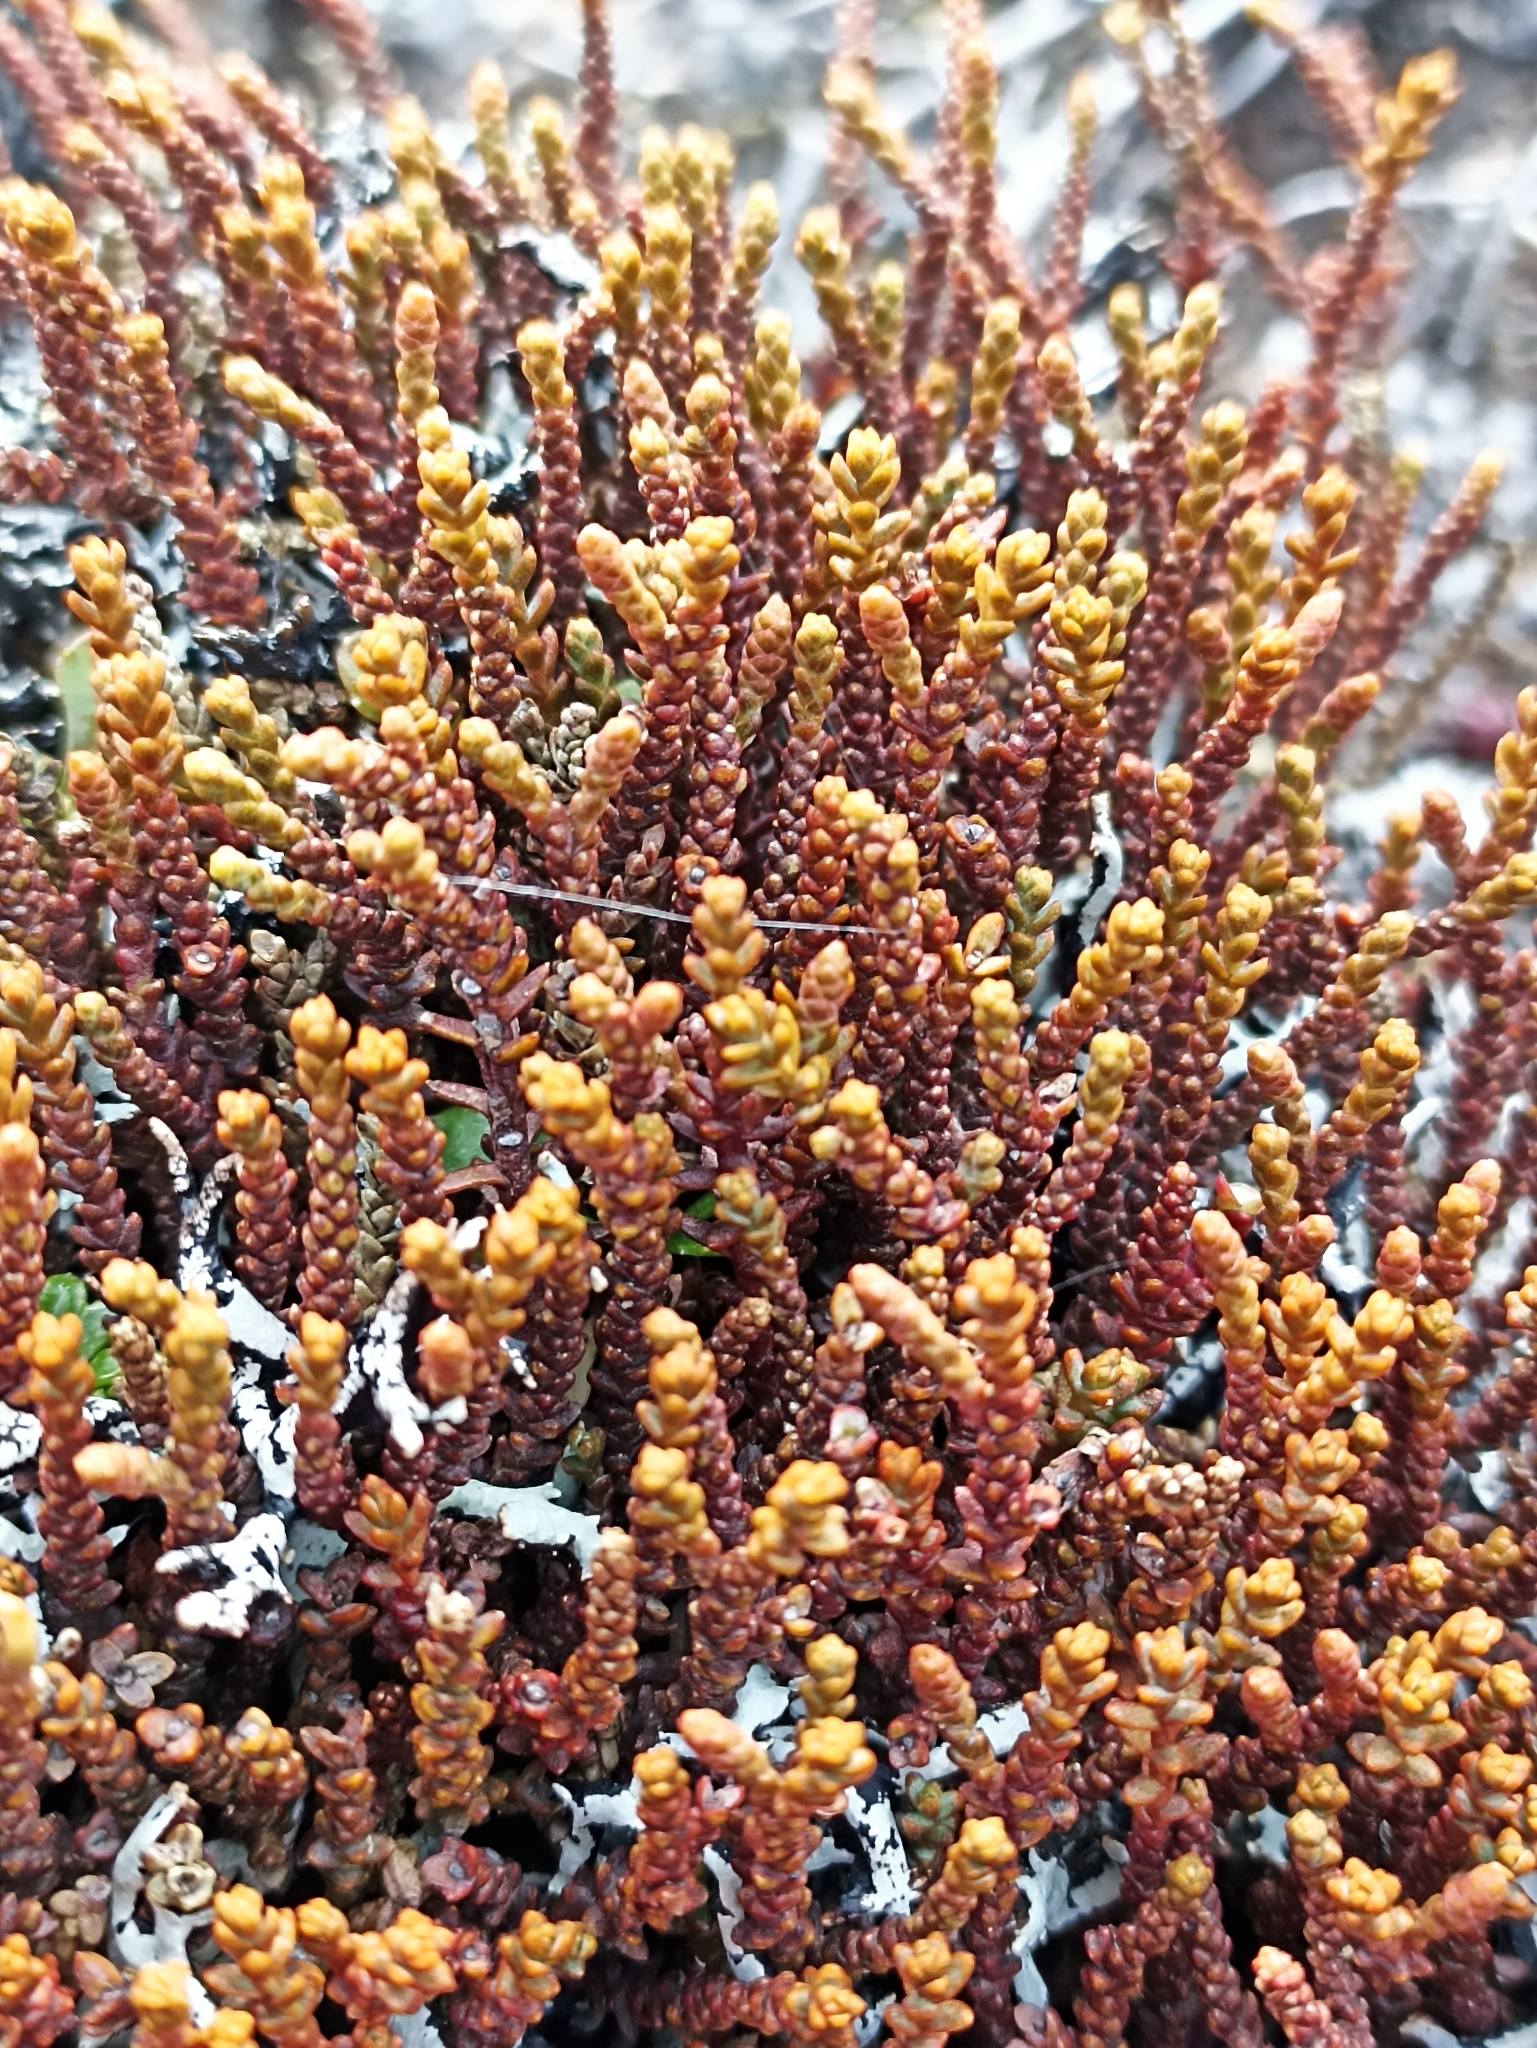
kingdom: Plantae
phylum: Tracheophyta
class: Pinopsida
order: Pinales
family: Podocarpaceae
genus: Lepidothamnus
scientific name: Lepidothamnus laxifolius
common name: Pygmy pine
